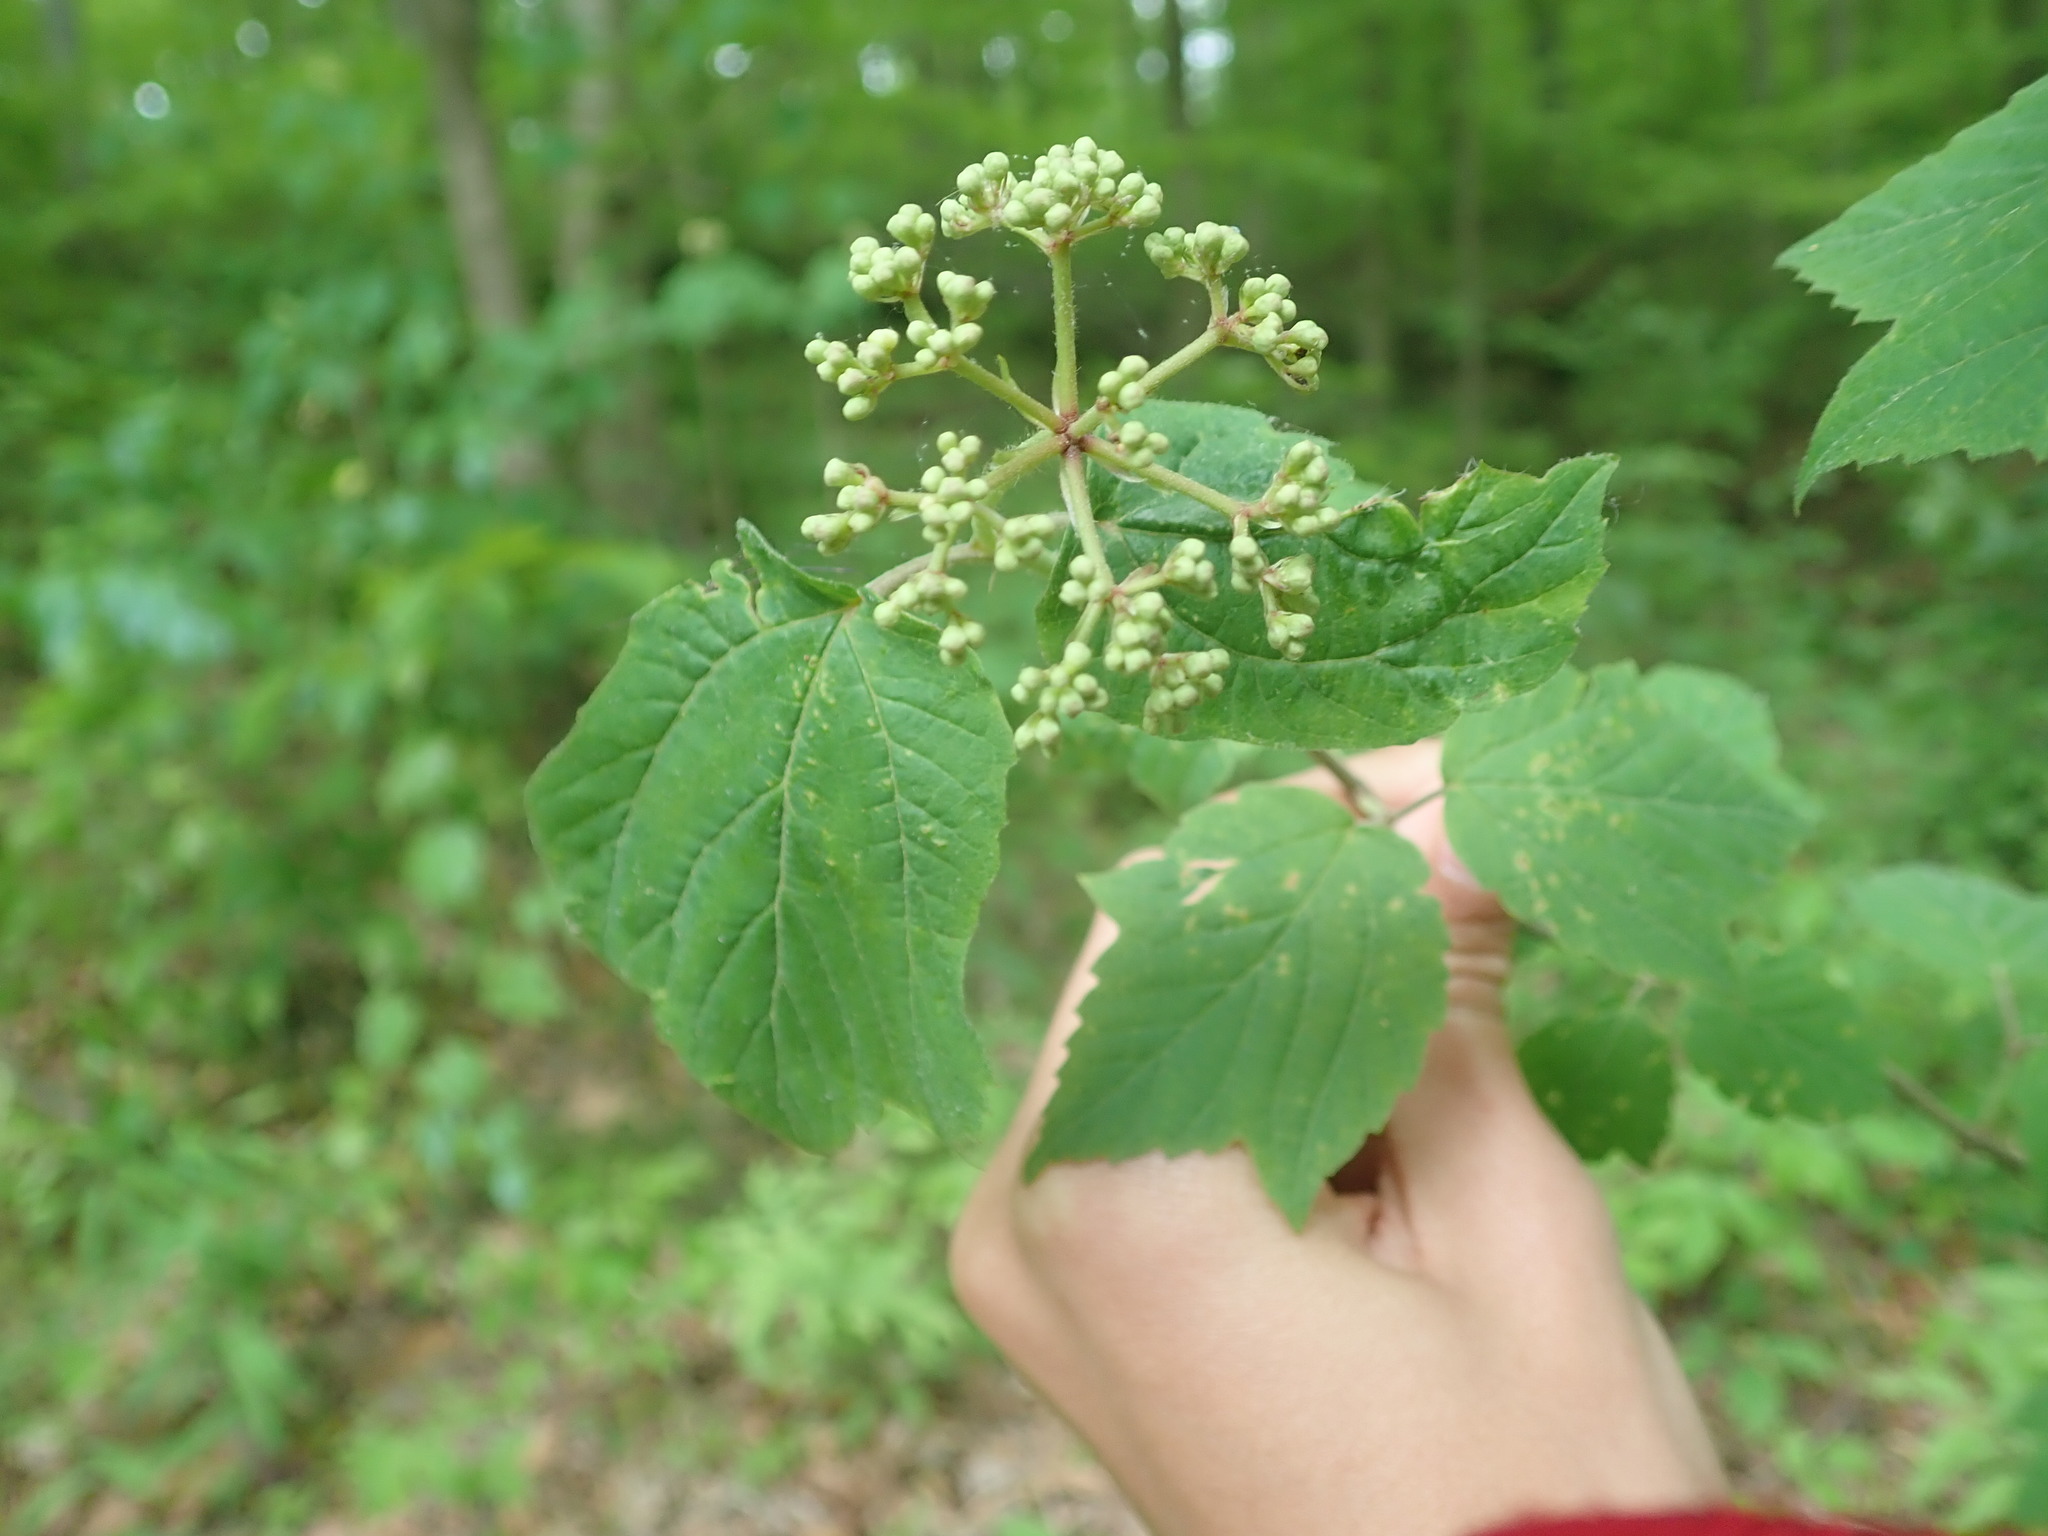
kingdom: Plantae
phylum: Tracheophyta
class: Magnoliopsida
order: Dipsacales
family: Viburnaceae
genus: Viburnum
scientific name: Viburnum acerifolium
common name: Dockmackie
